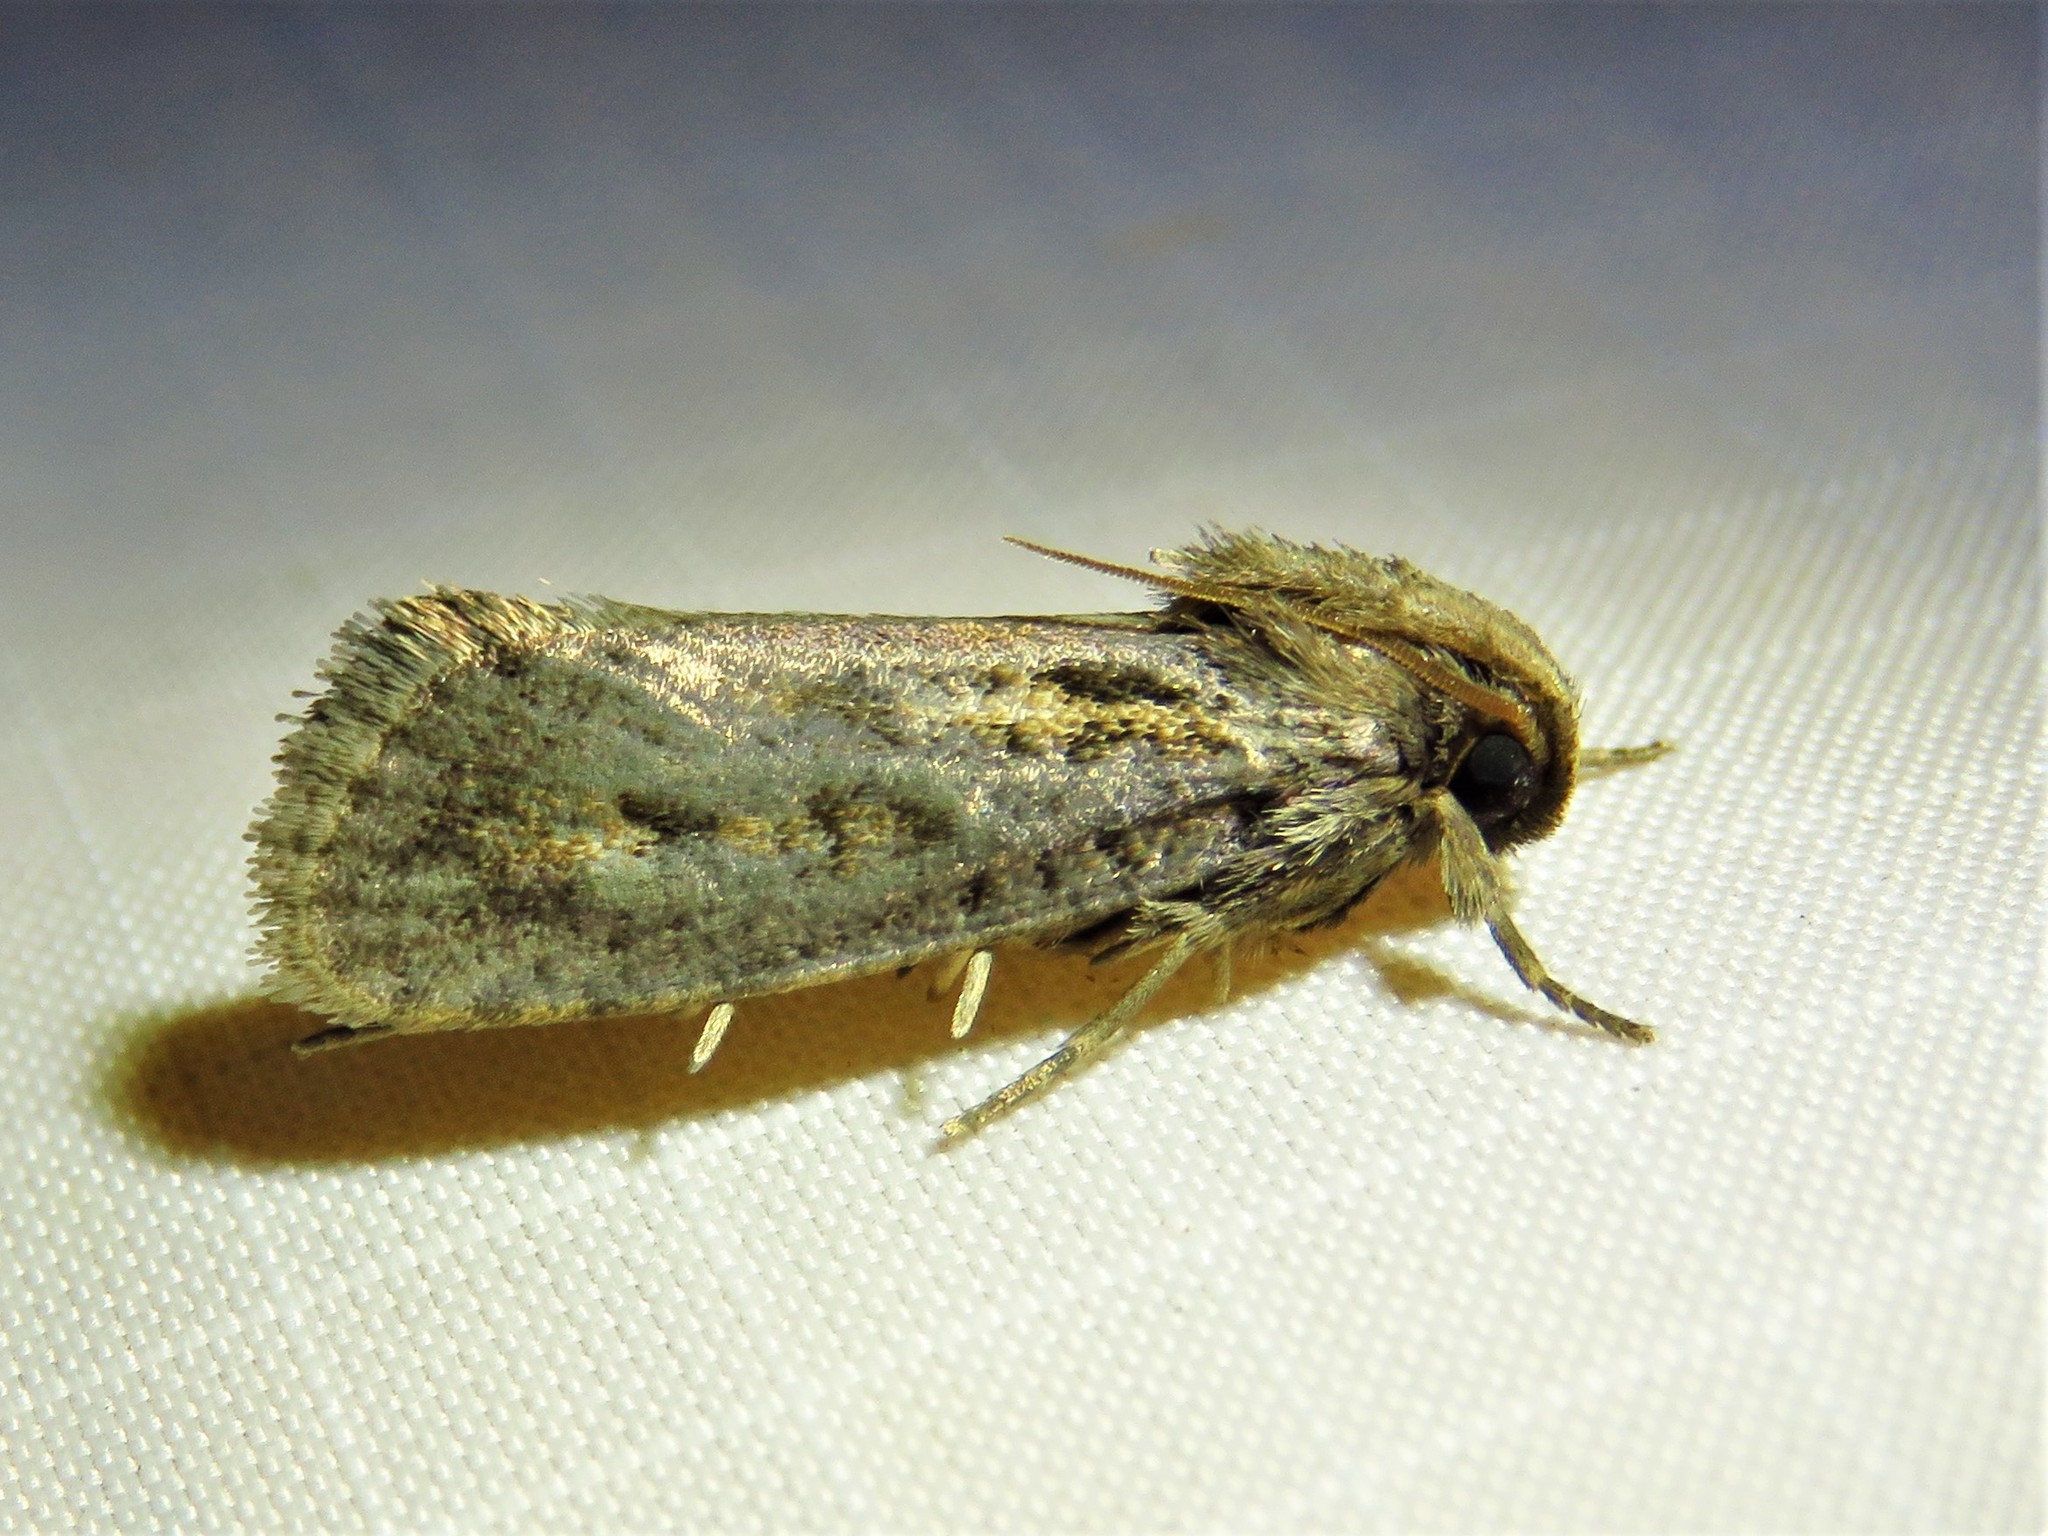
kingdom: Animalia
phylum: Arthropoda
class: Insecta
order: Lepidoptera
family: Tineidae
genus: Acrolophus
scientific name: Acrolophus popeanella
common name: Clemens' grass tubeworm moth
